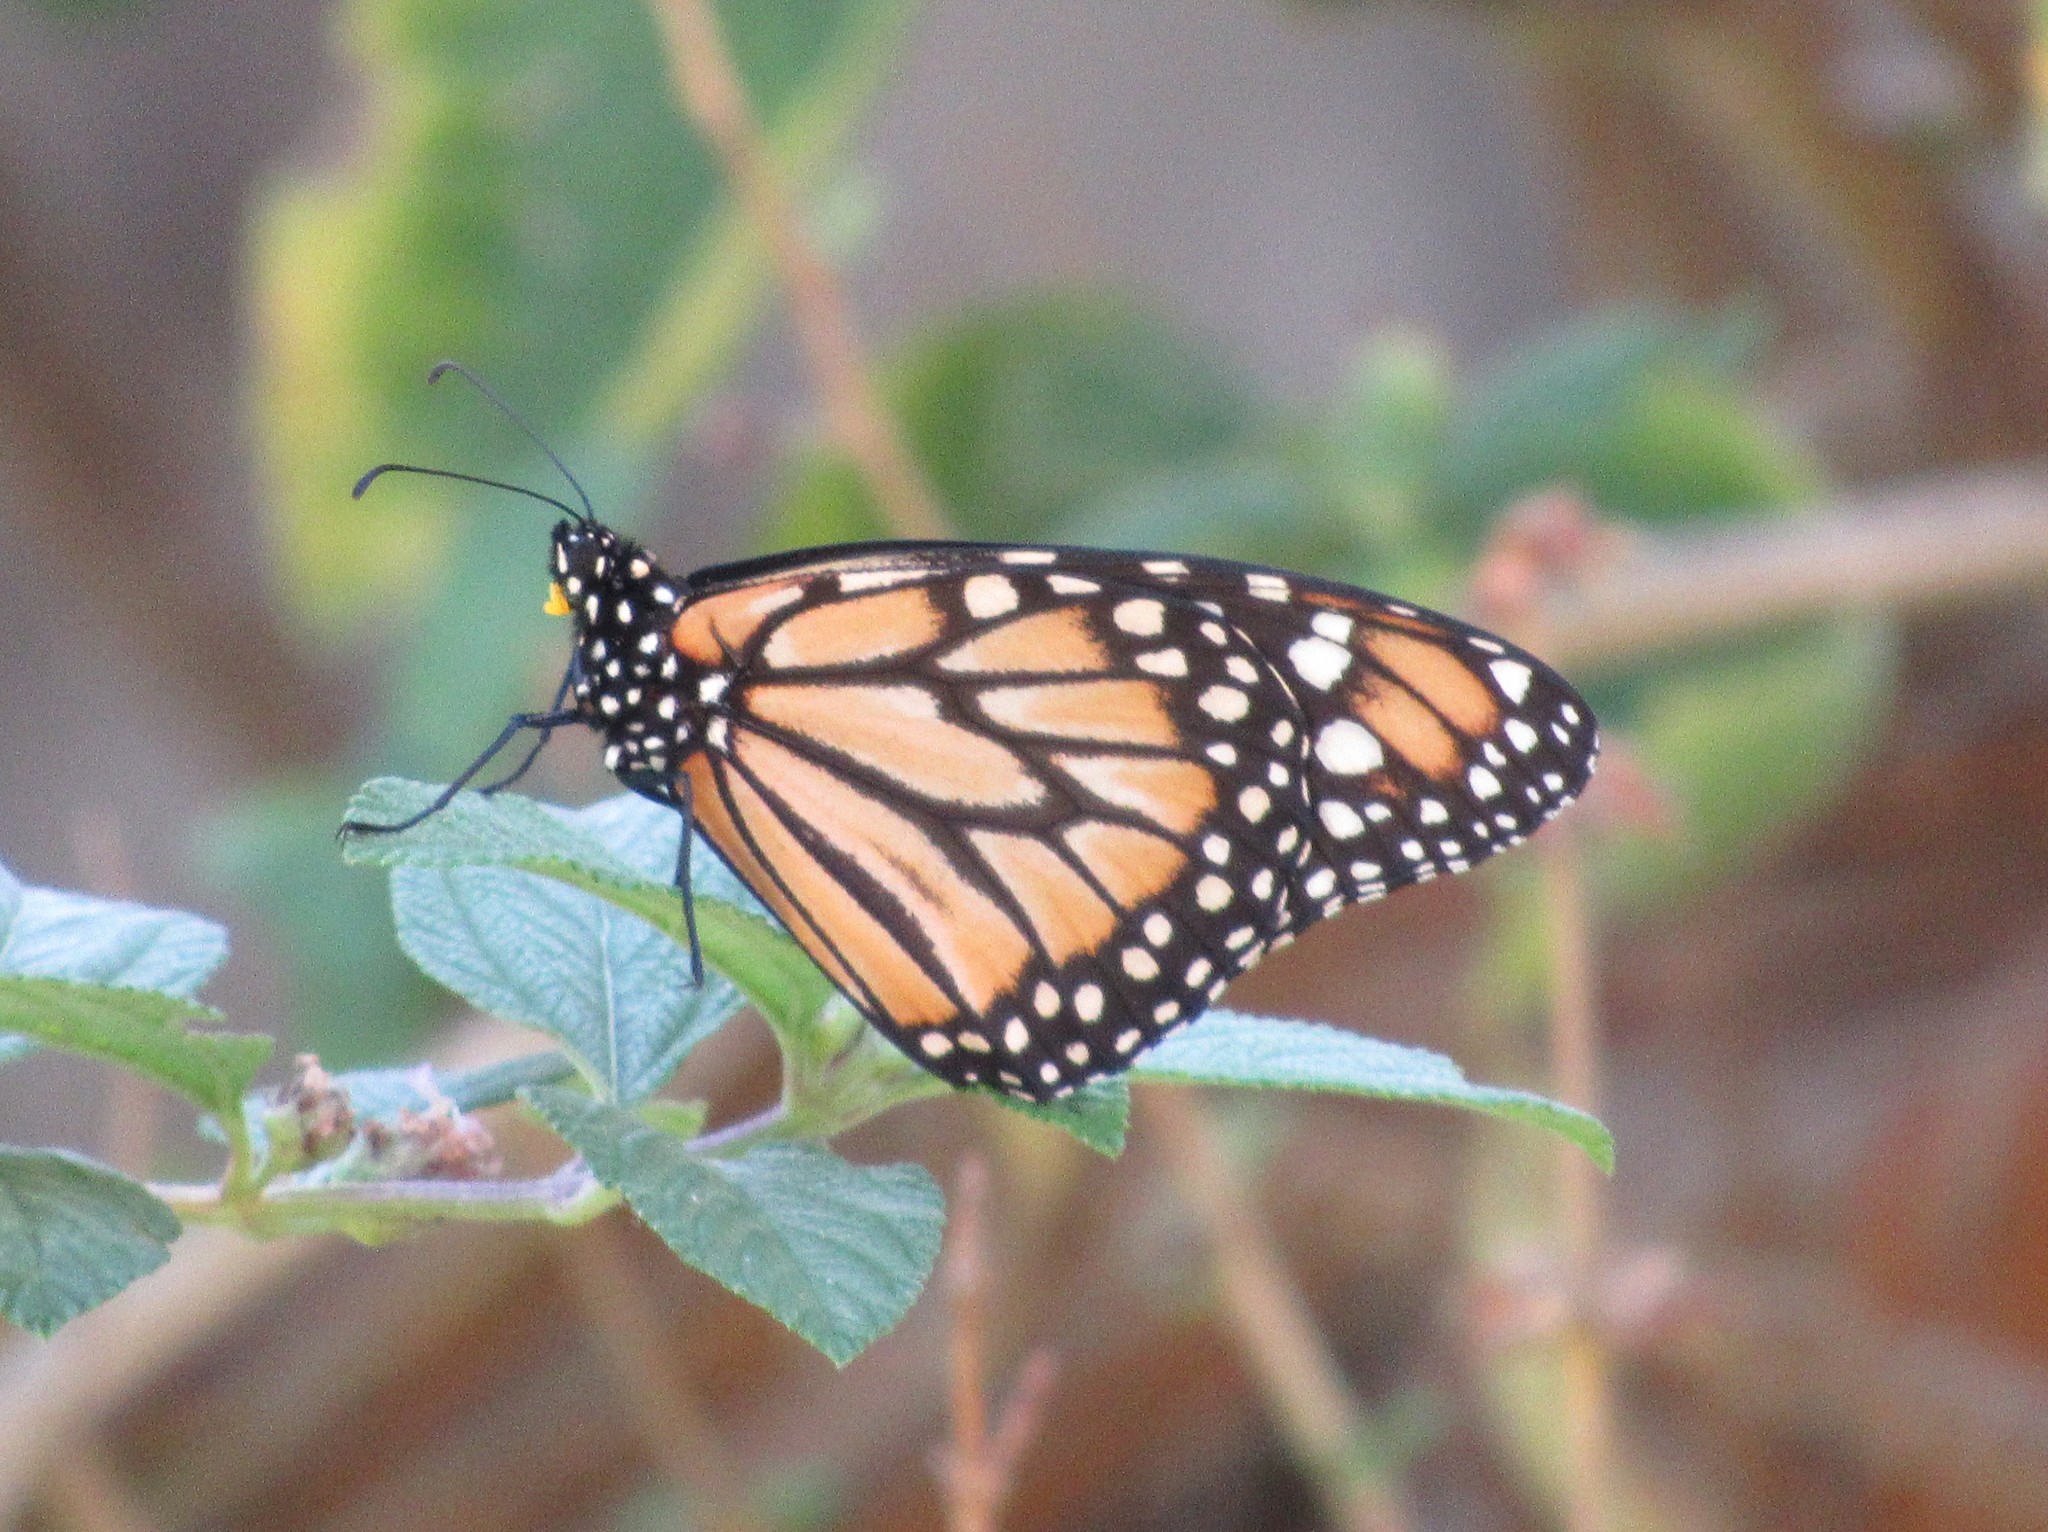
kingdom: Animalia
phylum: Arthropoda
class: Insecta
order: Lepidoptera
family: Nymphalidae
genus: Danaus
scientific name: Danaus erippus
